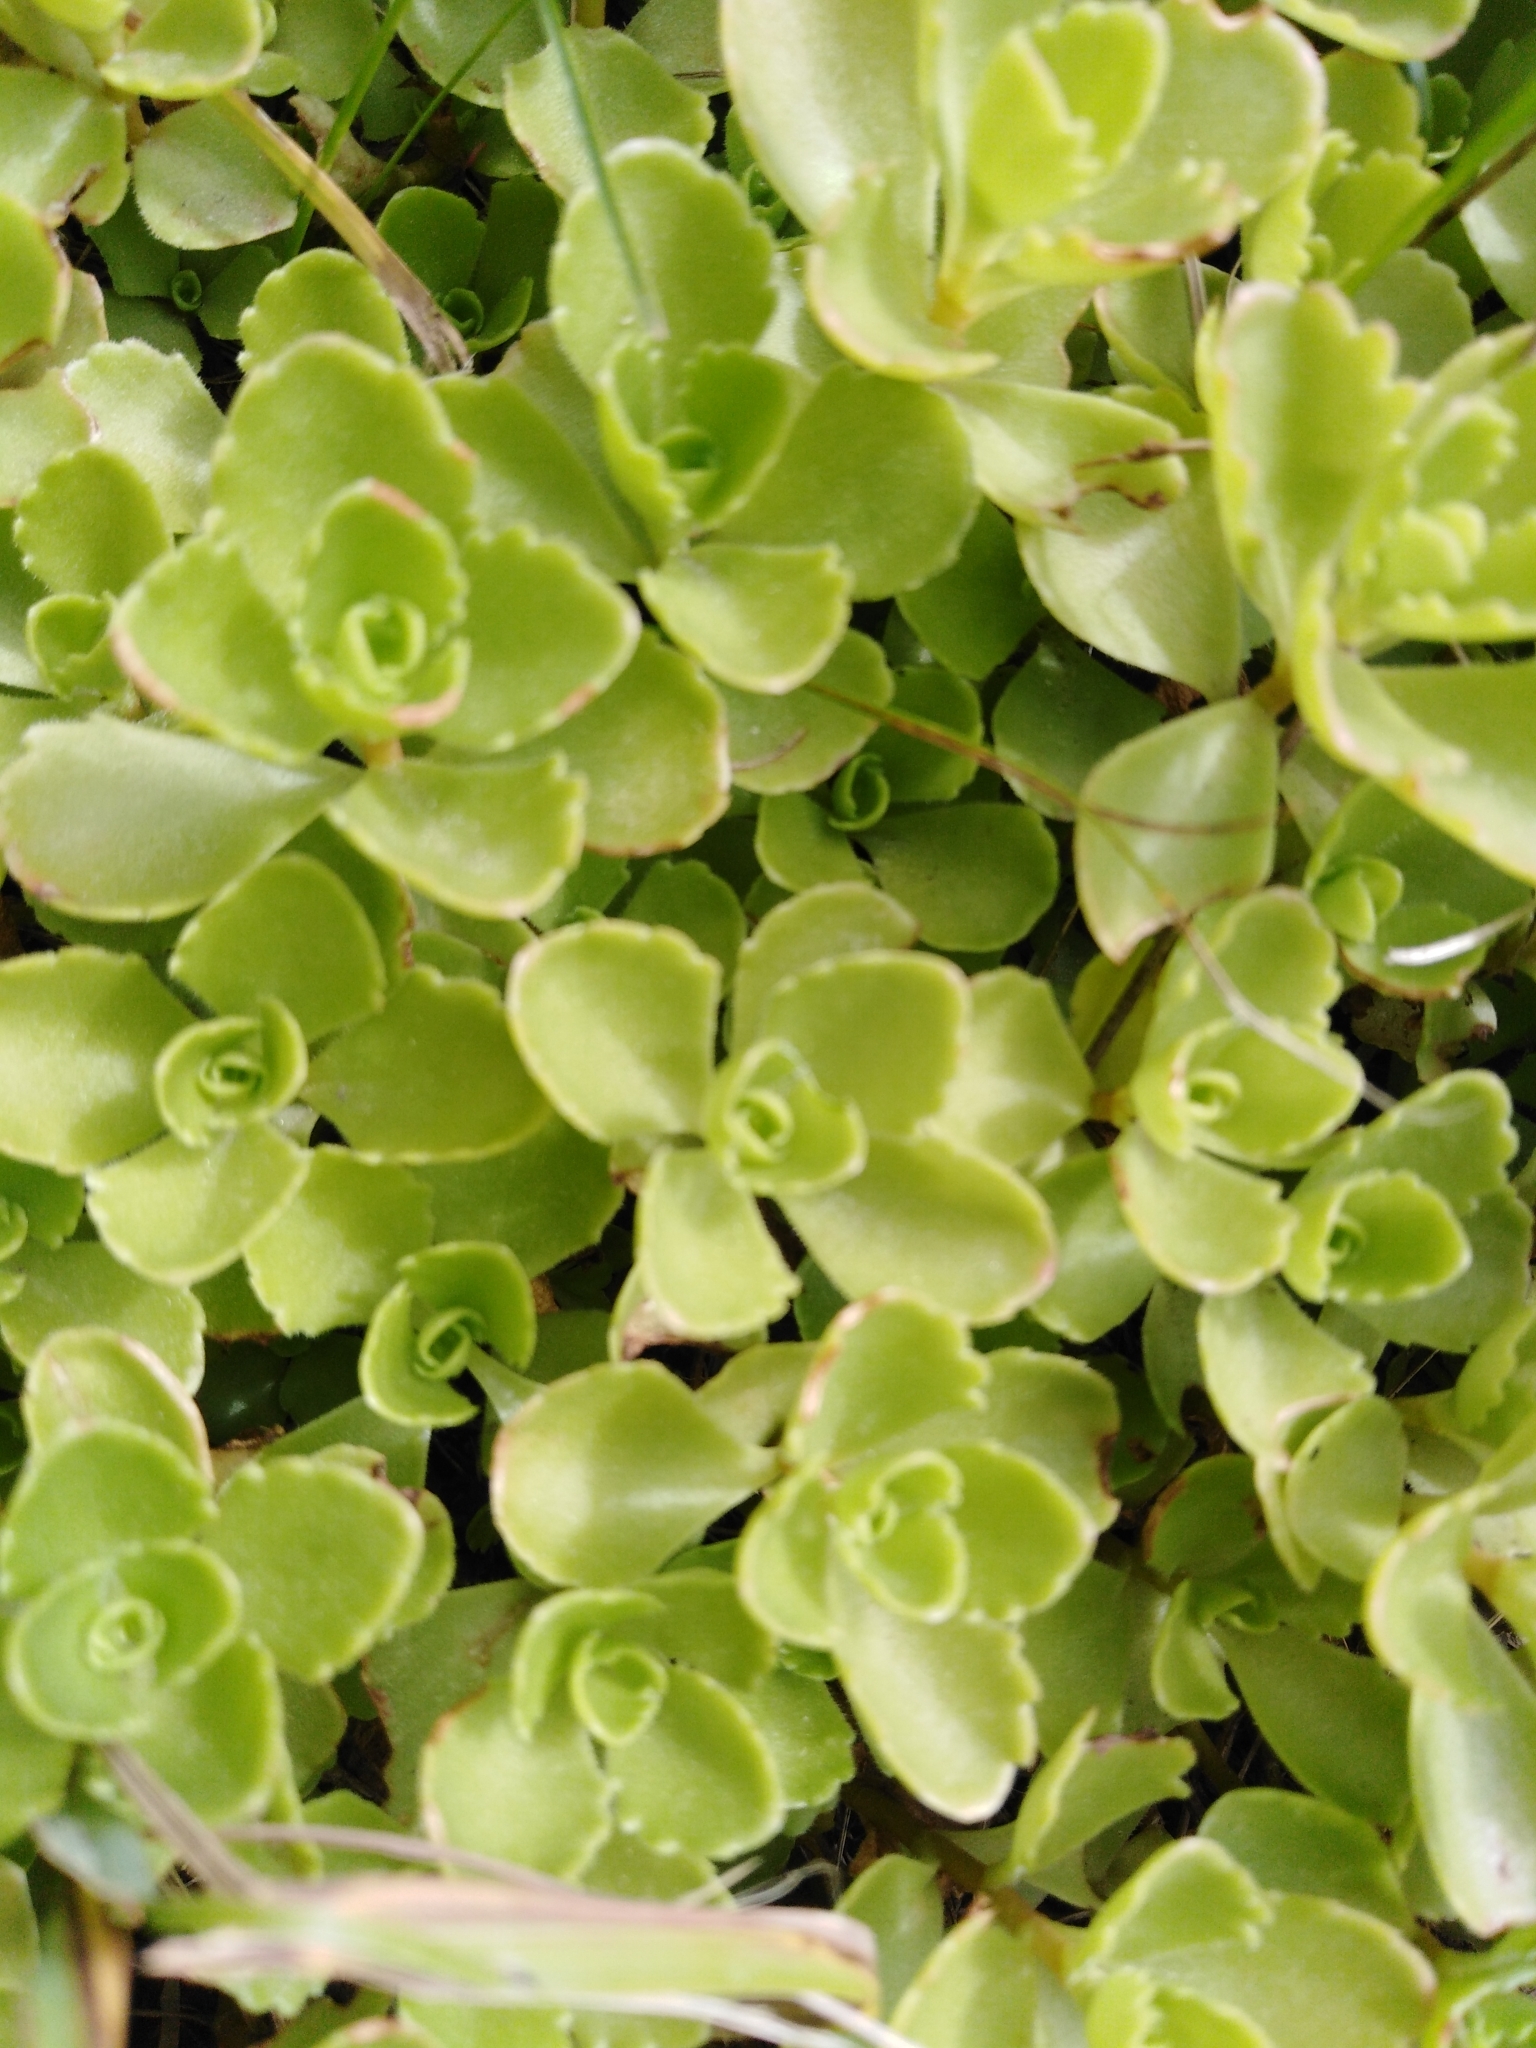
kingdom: Plantae
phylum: Tracheophyta
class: Magnoliopsida
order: Saxifragales
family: Crassulaceae
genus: Phedimus
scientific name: Phedimus spurius
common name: Caucasian stonecrop
